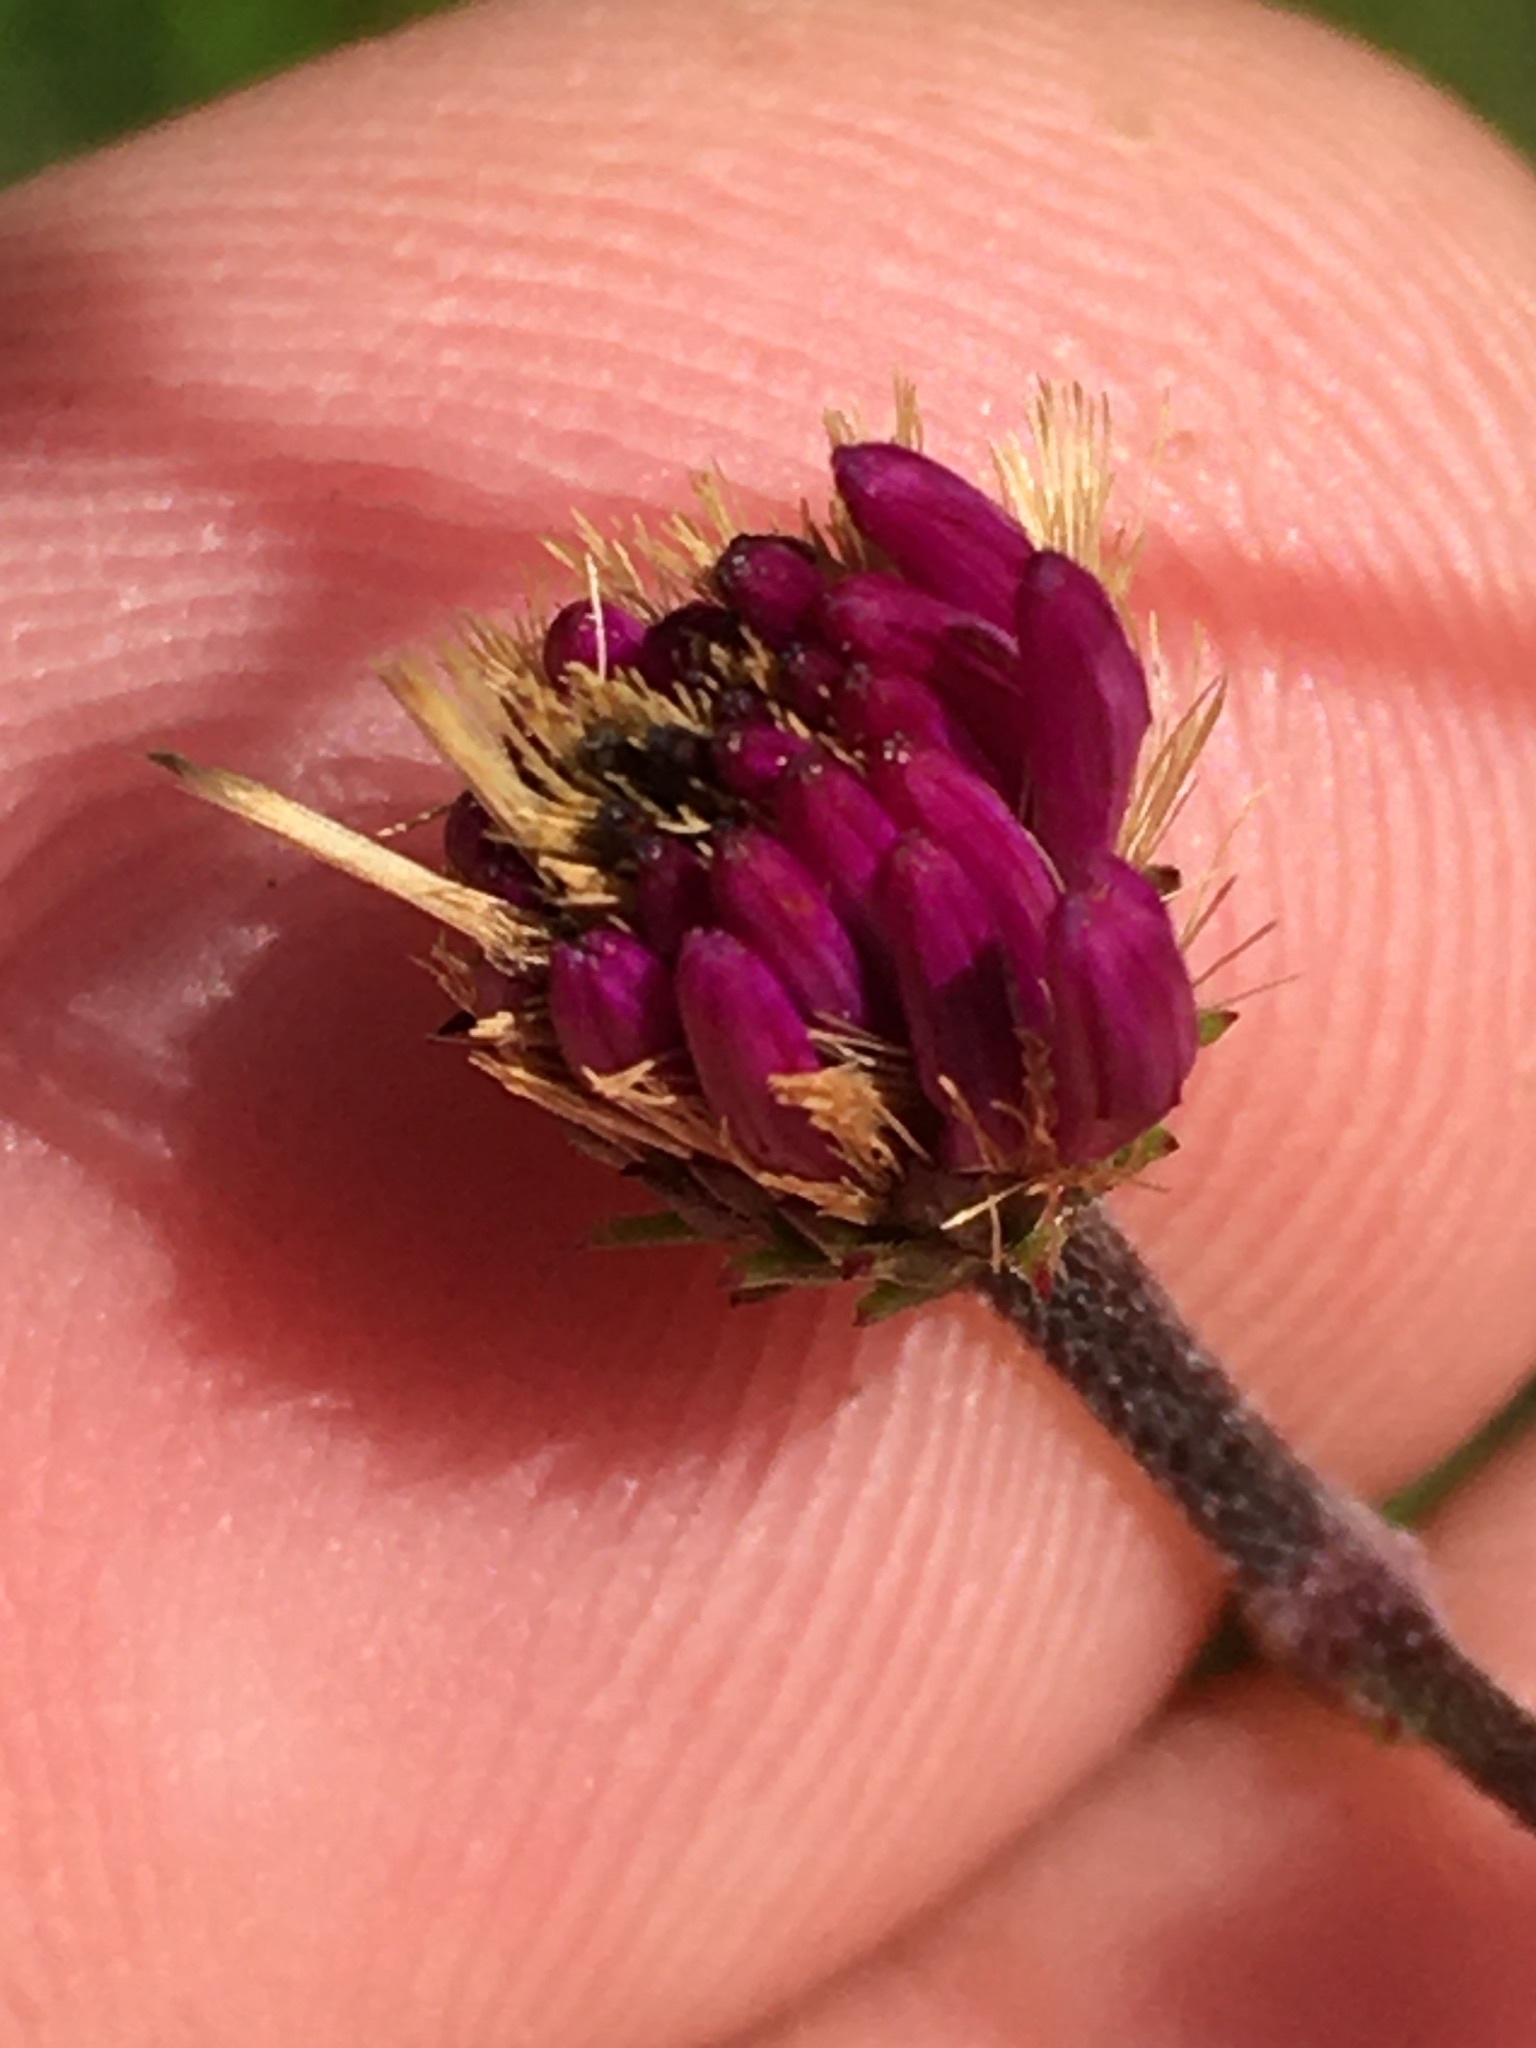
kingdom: Plantae
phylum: Tracheophyta
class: Magnoliopsida
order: Asterales
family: Asteraceae
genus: Vernonia
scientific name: Vernonia acaulis
